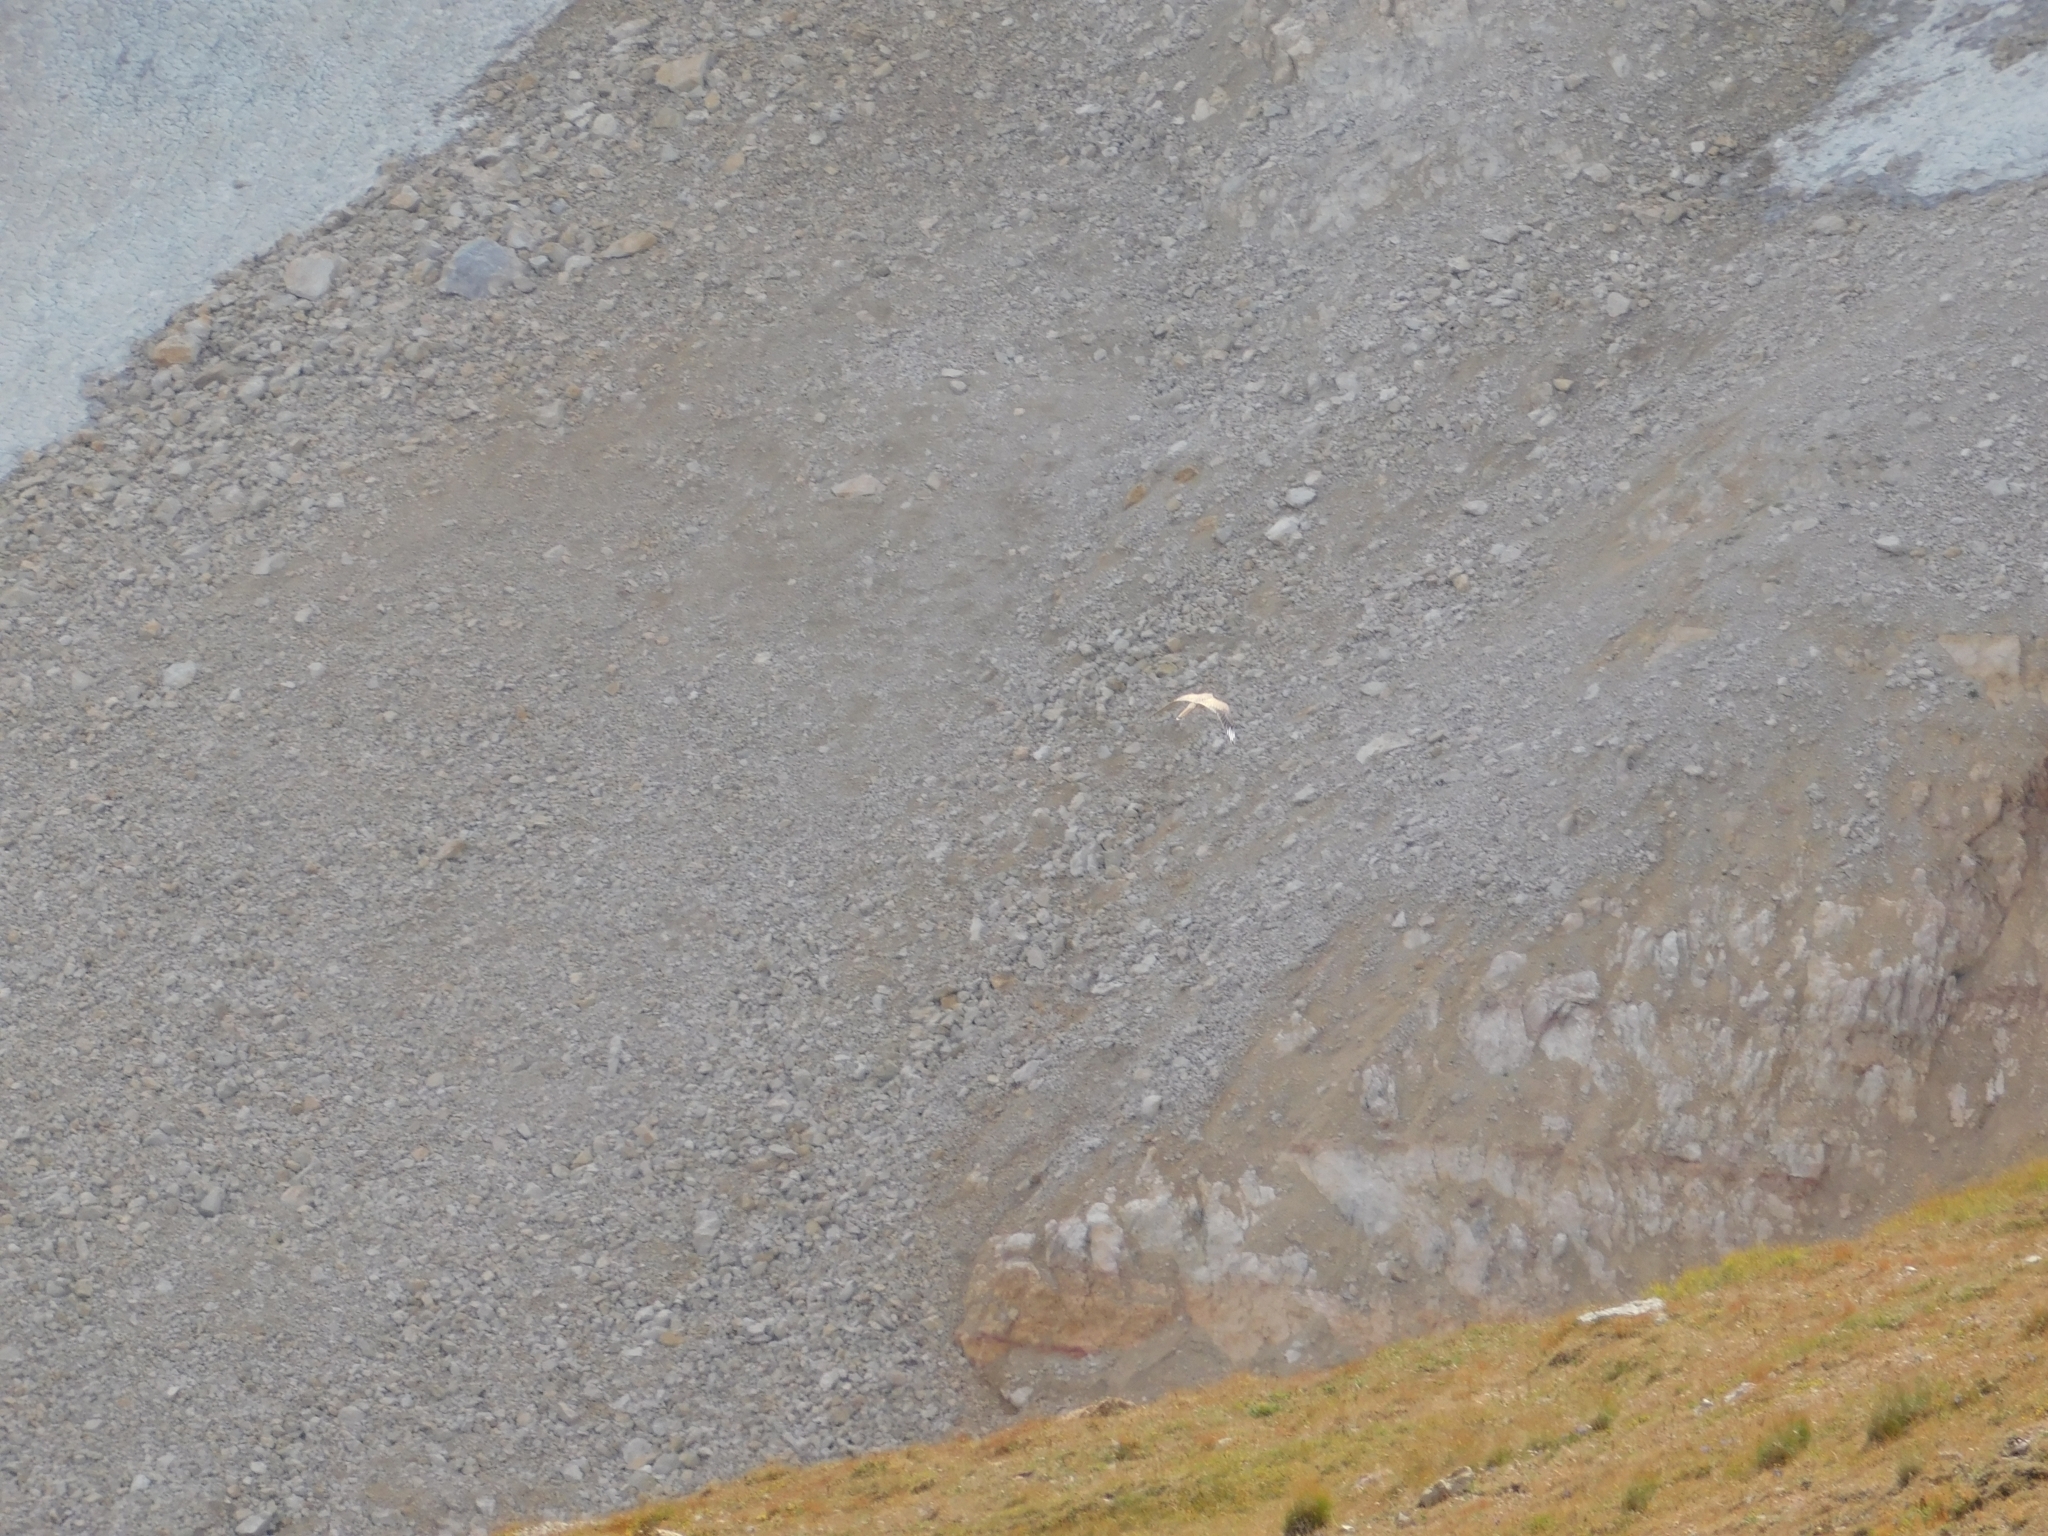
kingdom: Animalia
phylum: Chordata
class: Aves
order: Falconiformes
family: Falconidae
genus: Falco
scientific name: Falco tinnunculus
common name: Common kestrel
